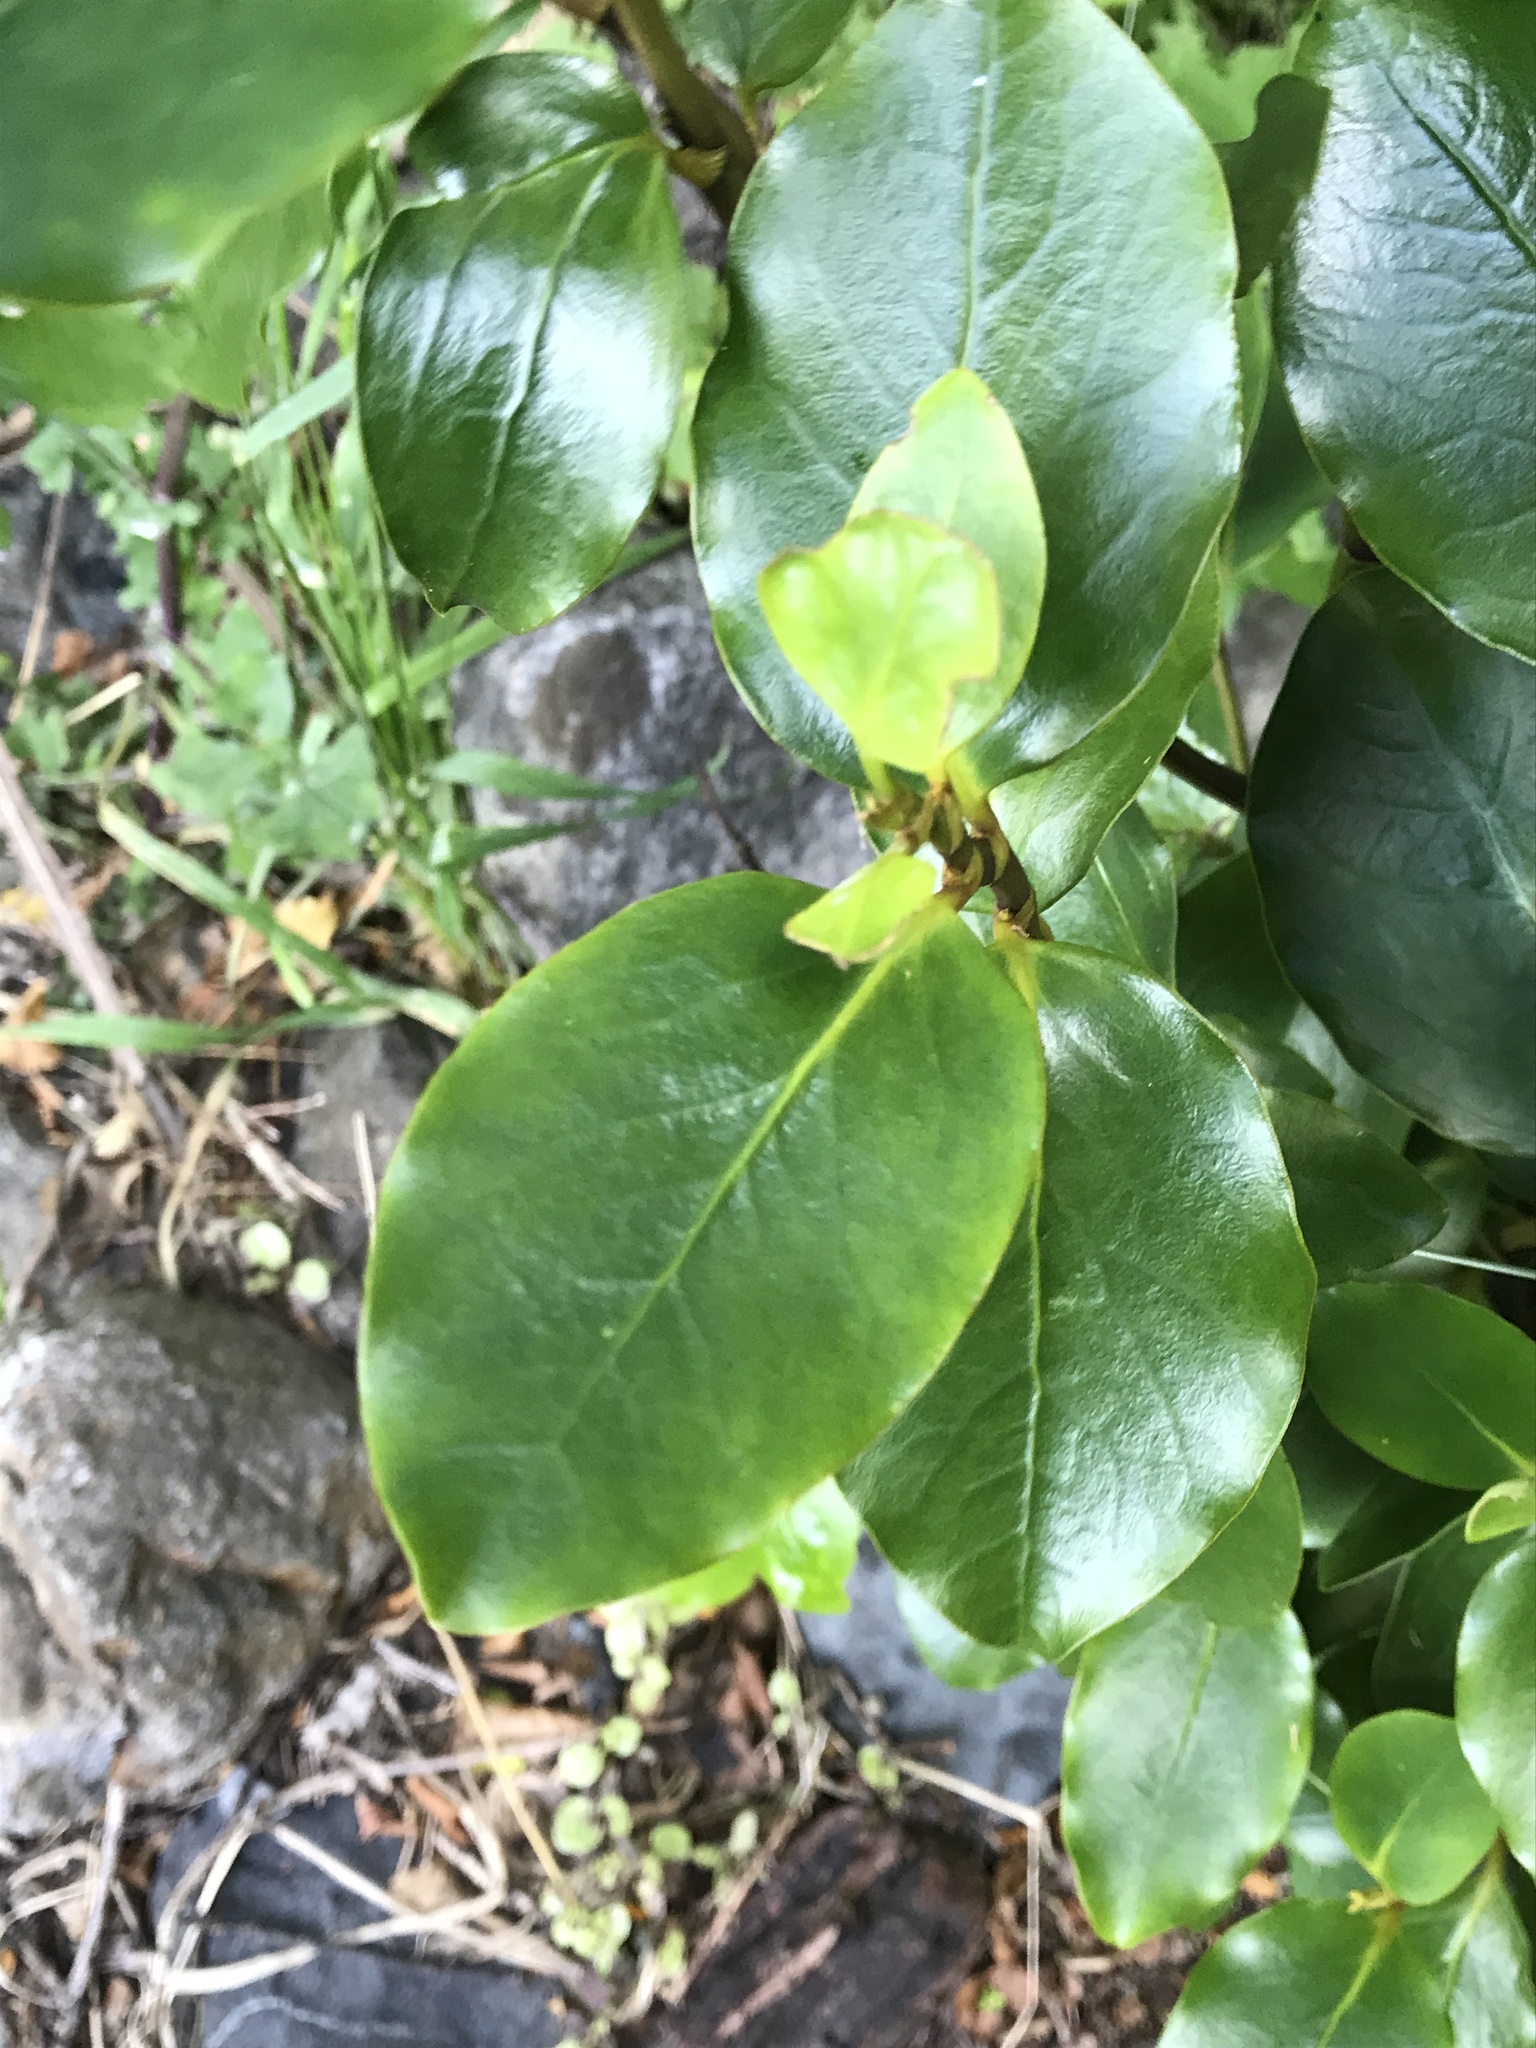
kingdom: Plantae
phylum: Tracheophyta
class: Magnoliopsida
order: Apiales
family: Griseliniaceae
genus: Griselinia
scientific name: Griselinia littoralis
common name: New zealand broadleaf
